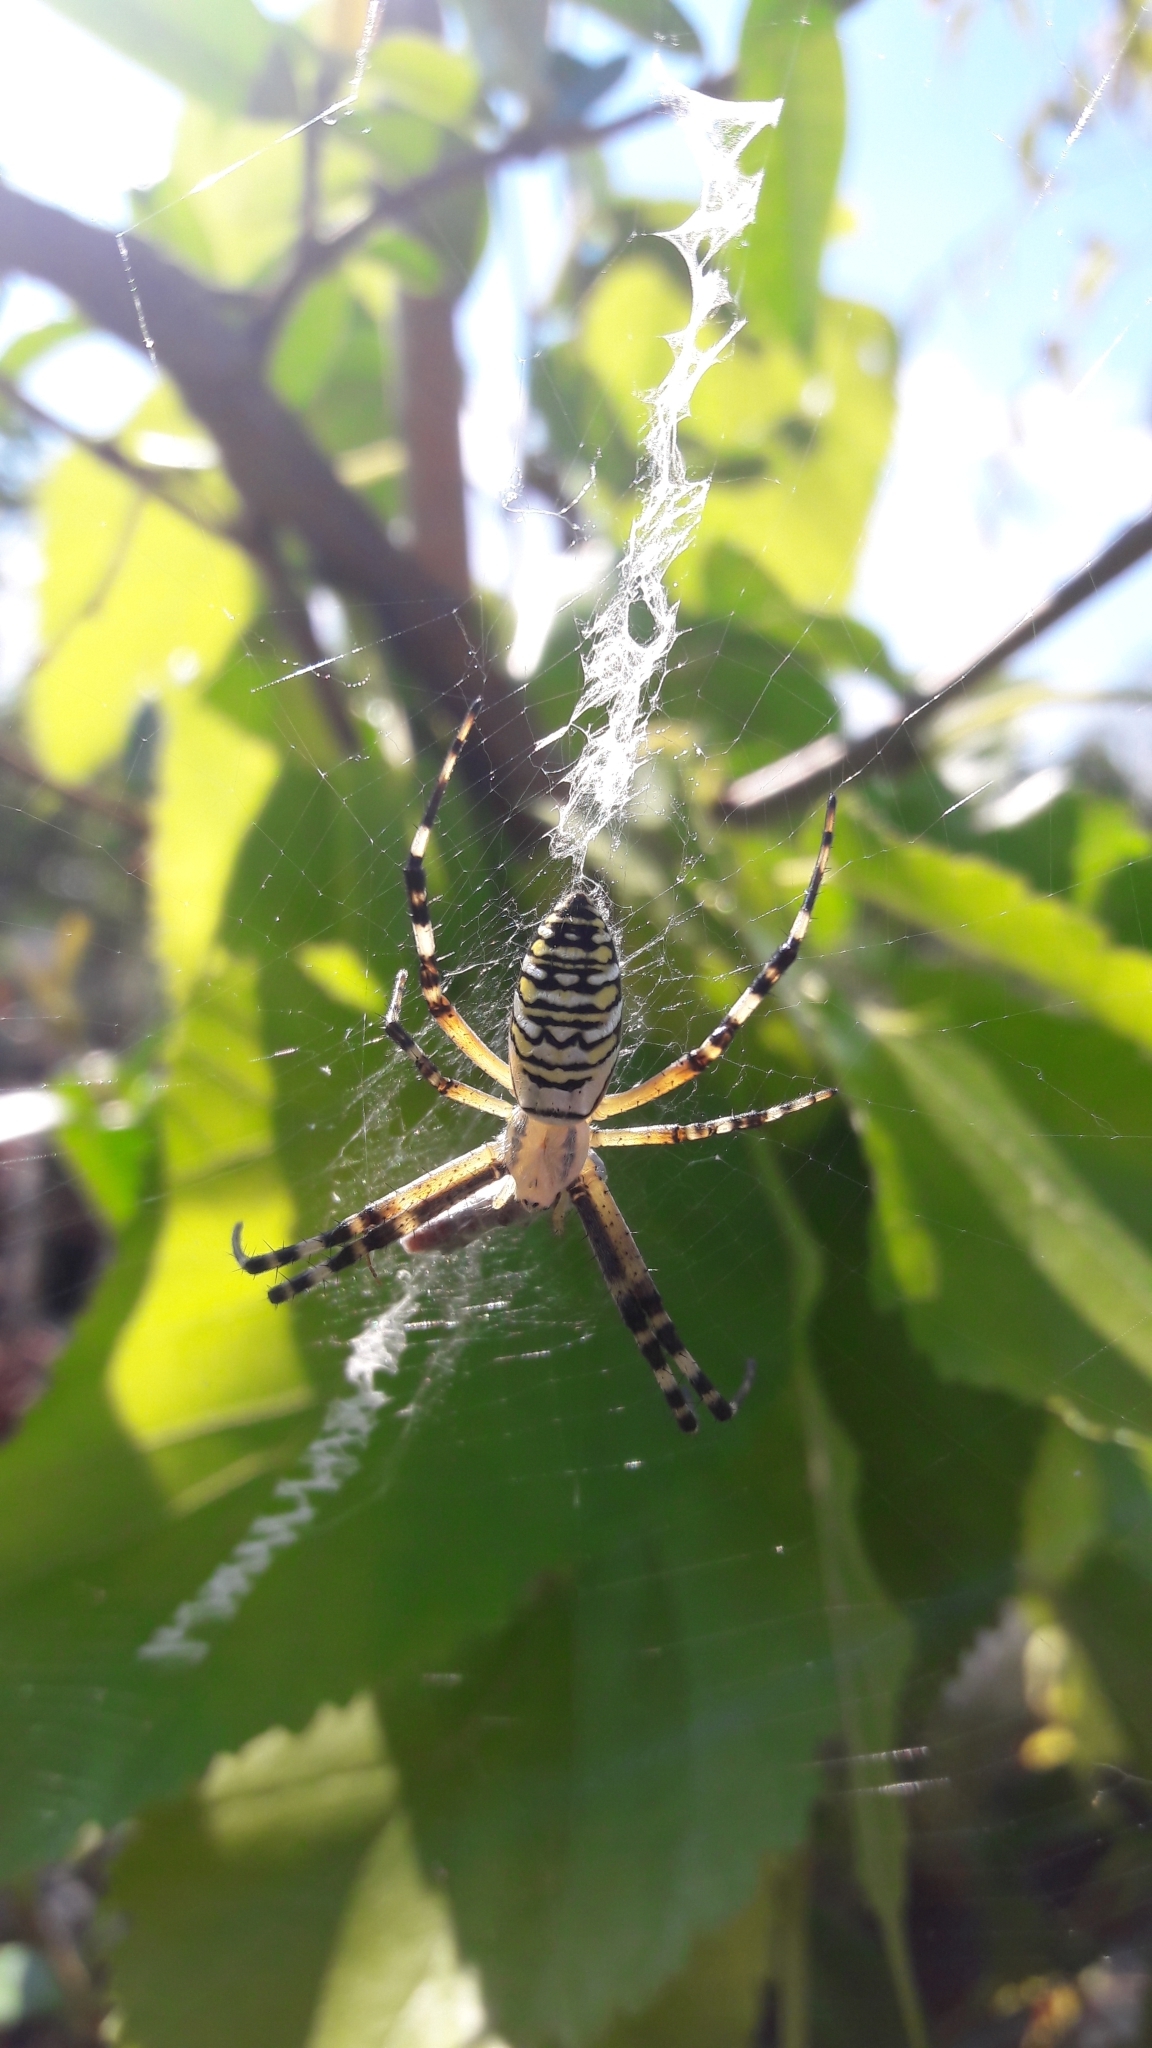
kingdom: Animalia
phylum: Arthropoda
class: Arachnida
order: Araneae
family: Araneidae
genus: Argiope
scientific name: Argiope bruennichi
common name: Wasp spider
